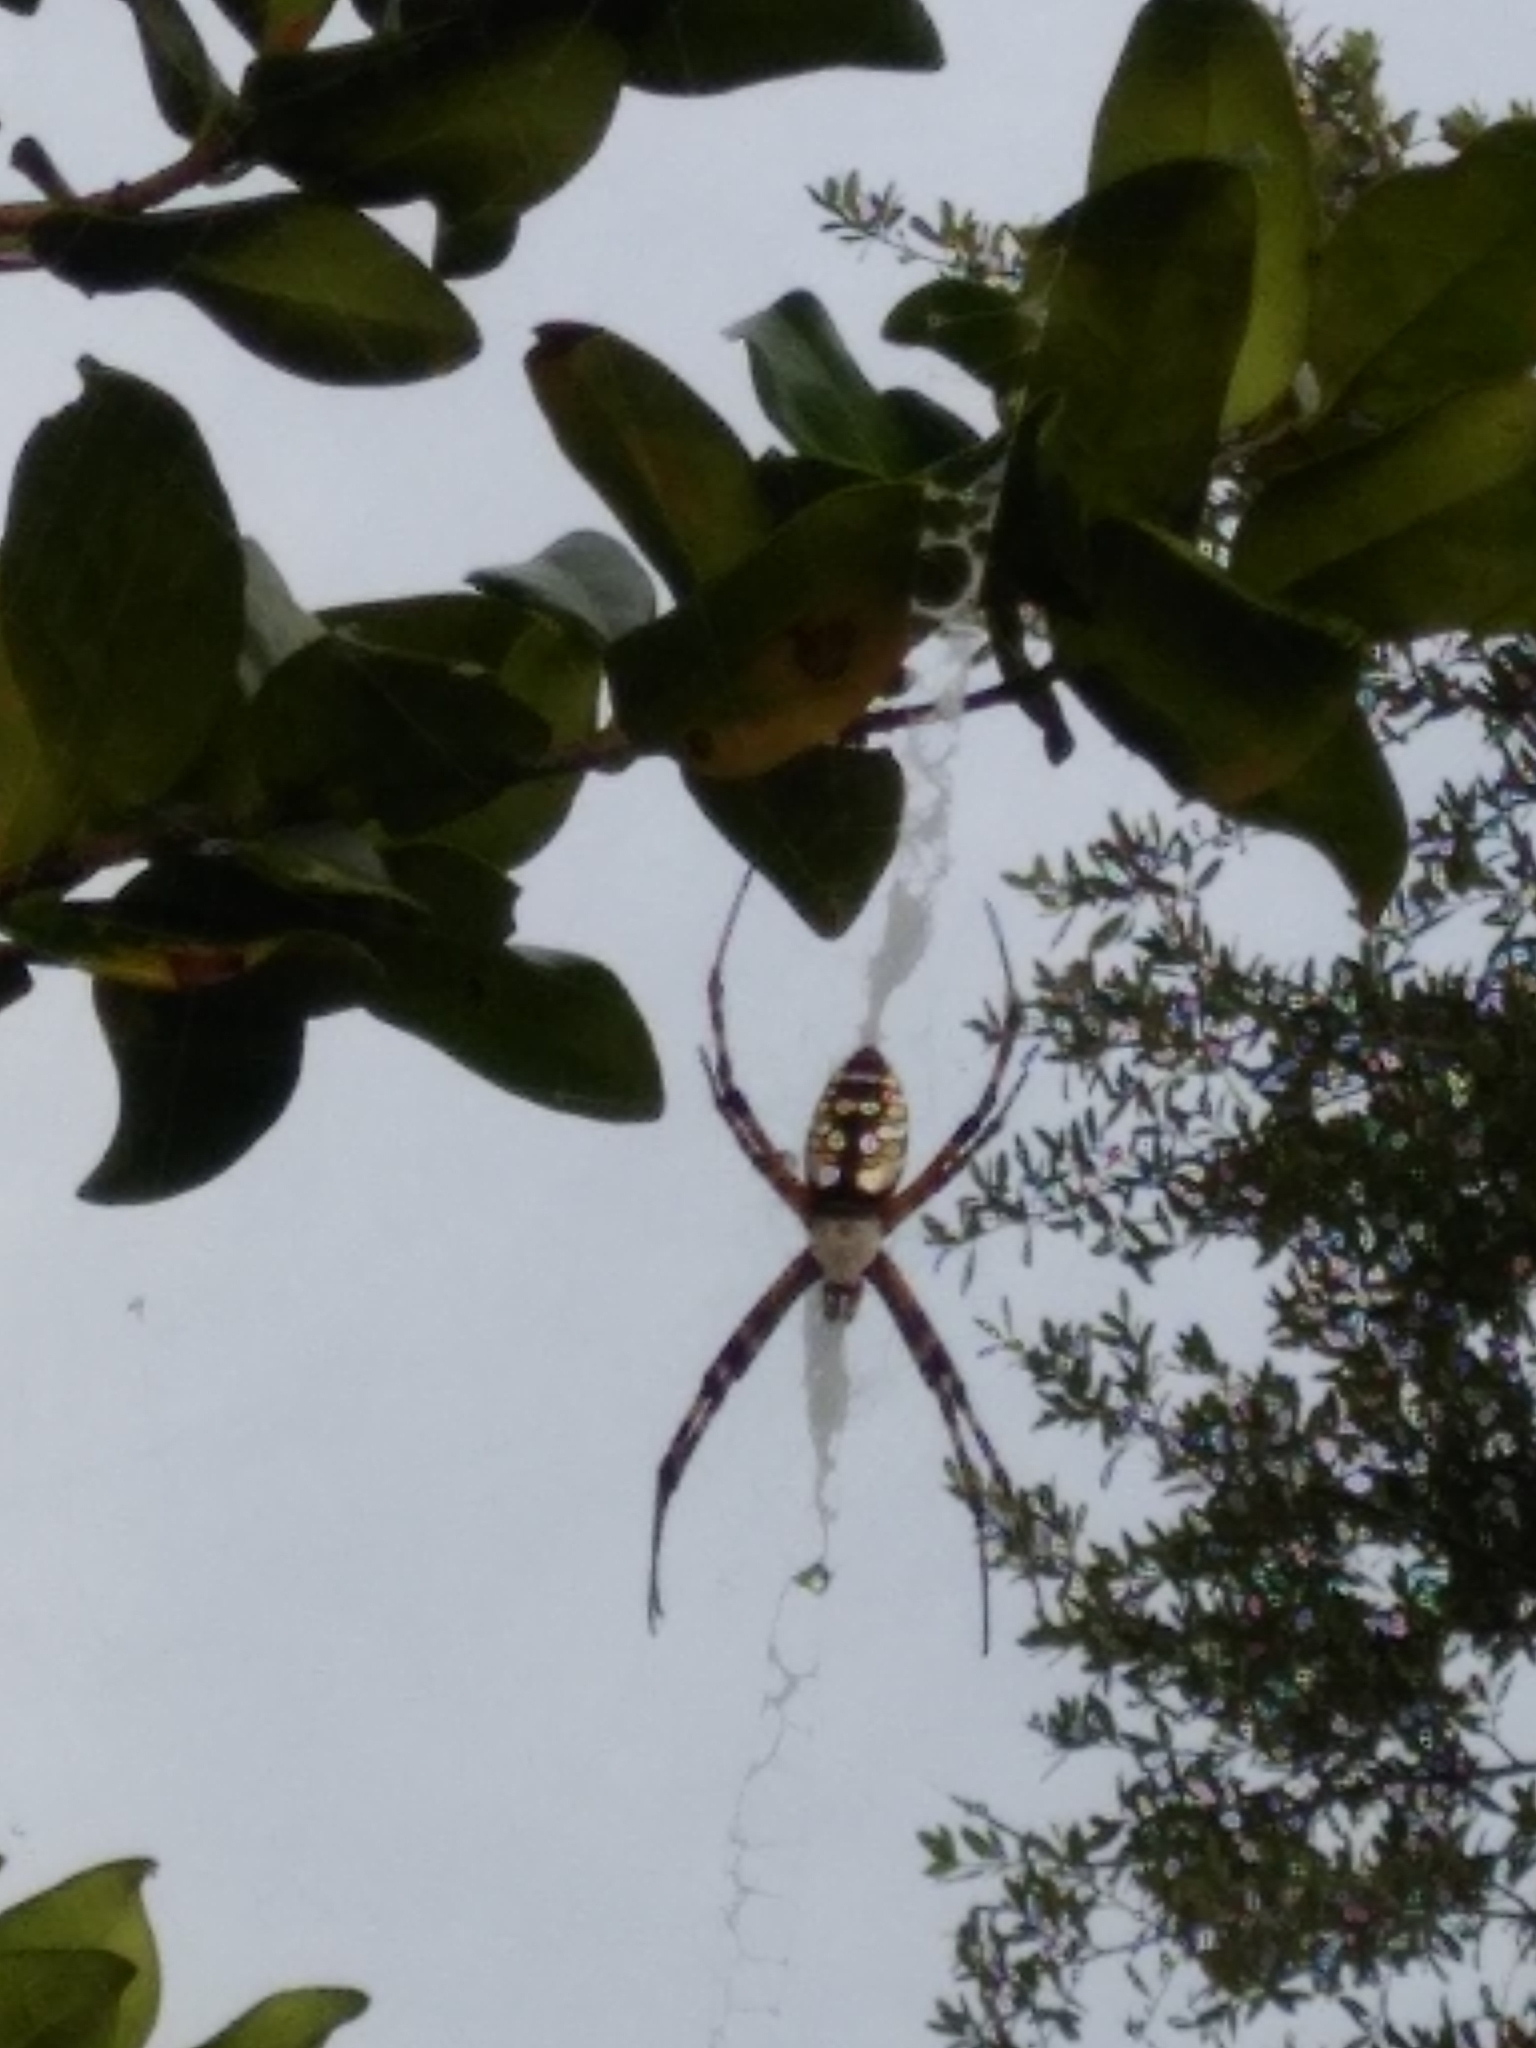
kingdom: Animalia
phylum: Arthropoda
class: Arachnida
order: Araneae
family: Araneidae
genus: Argiope
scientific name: Argiope aurantia
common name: Orb weavers
